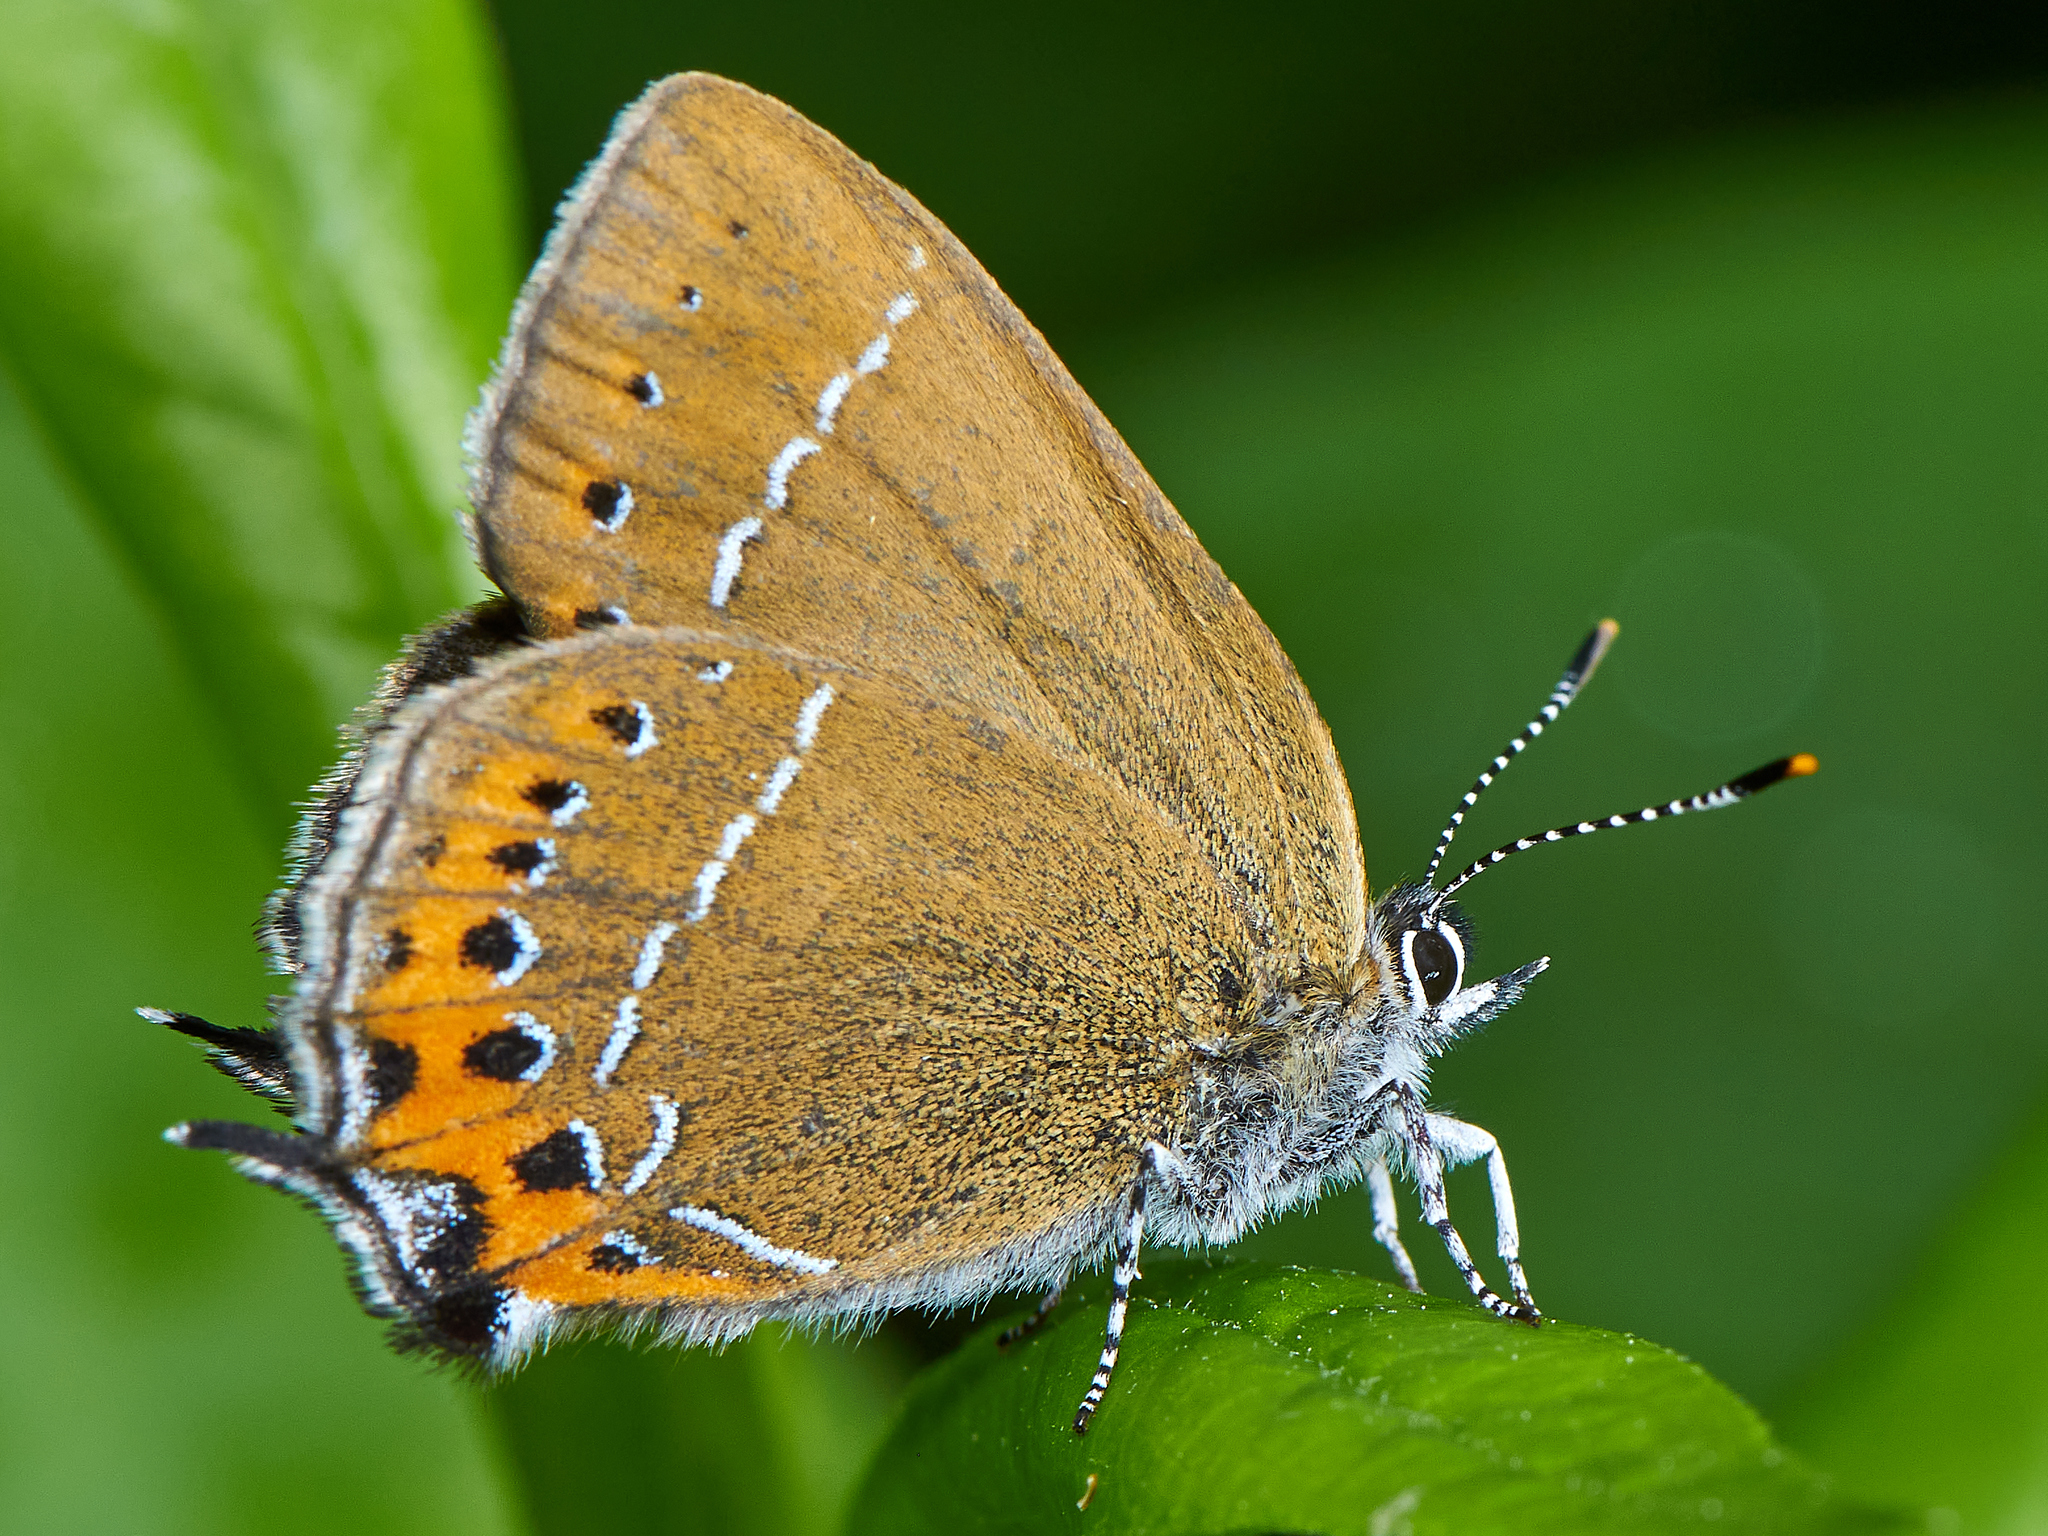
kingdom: Animalia
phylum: Arthropoda
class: Insecta
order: Lepidoptera
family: Lycaenidae
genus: Fixsenia
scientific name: Fixsenia pruni
